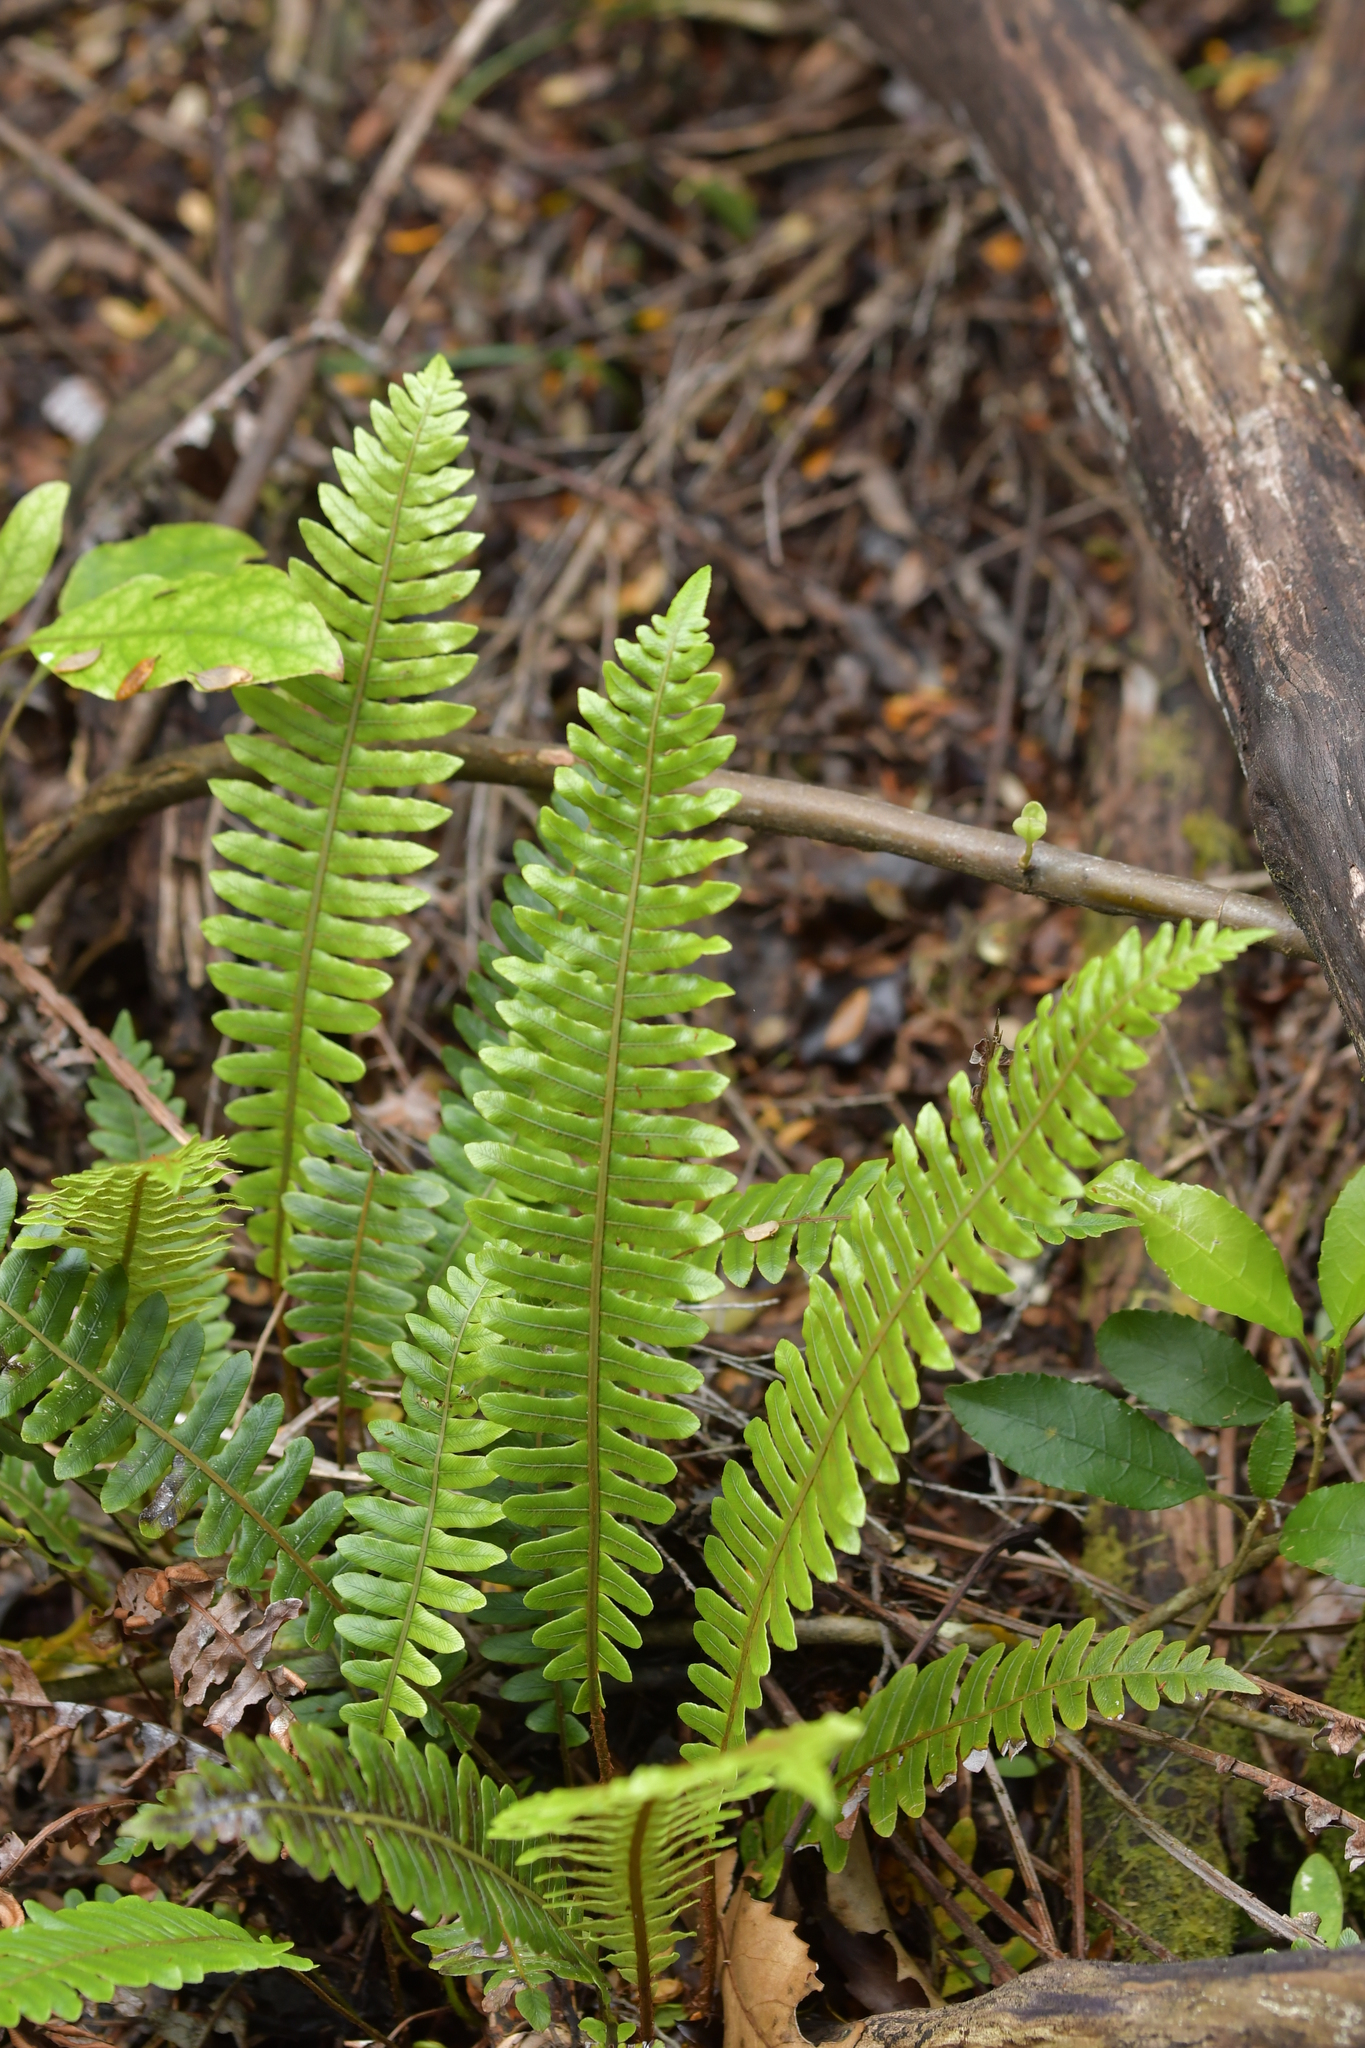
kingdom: Plantae
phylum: Tracheophyta
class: Polypodiopsida
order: Polypodiales
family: Blechnaceae
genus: Lomaria
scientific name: Lomaria discolor
